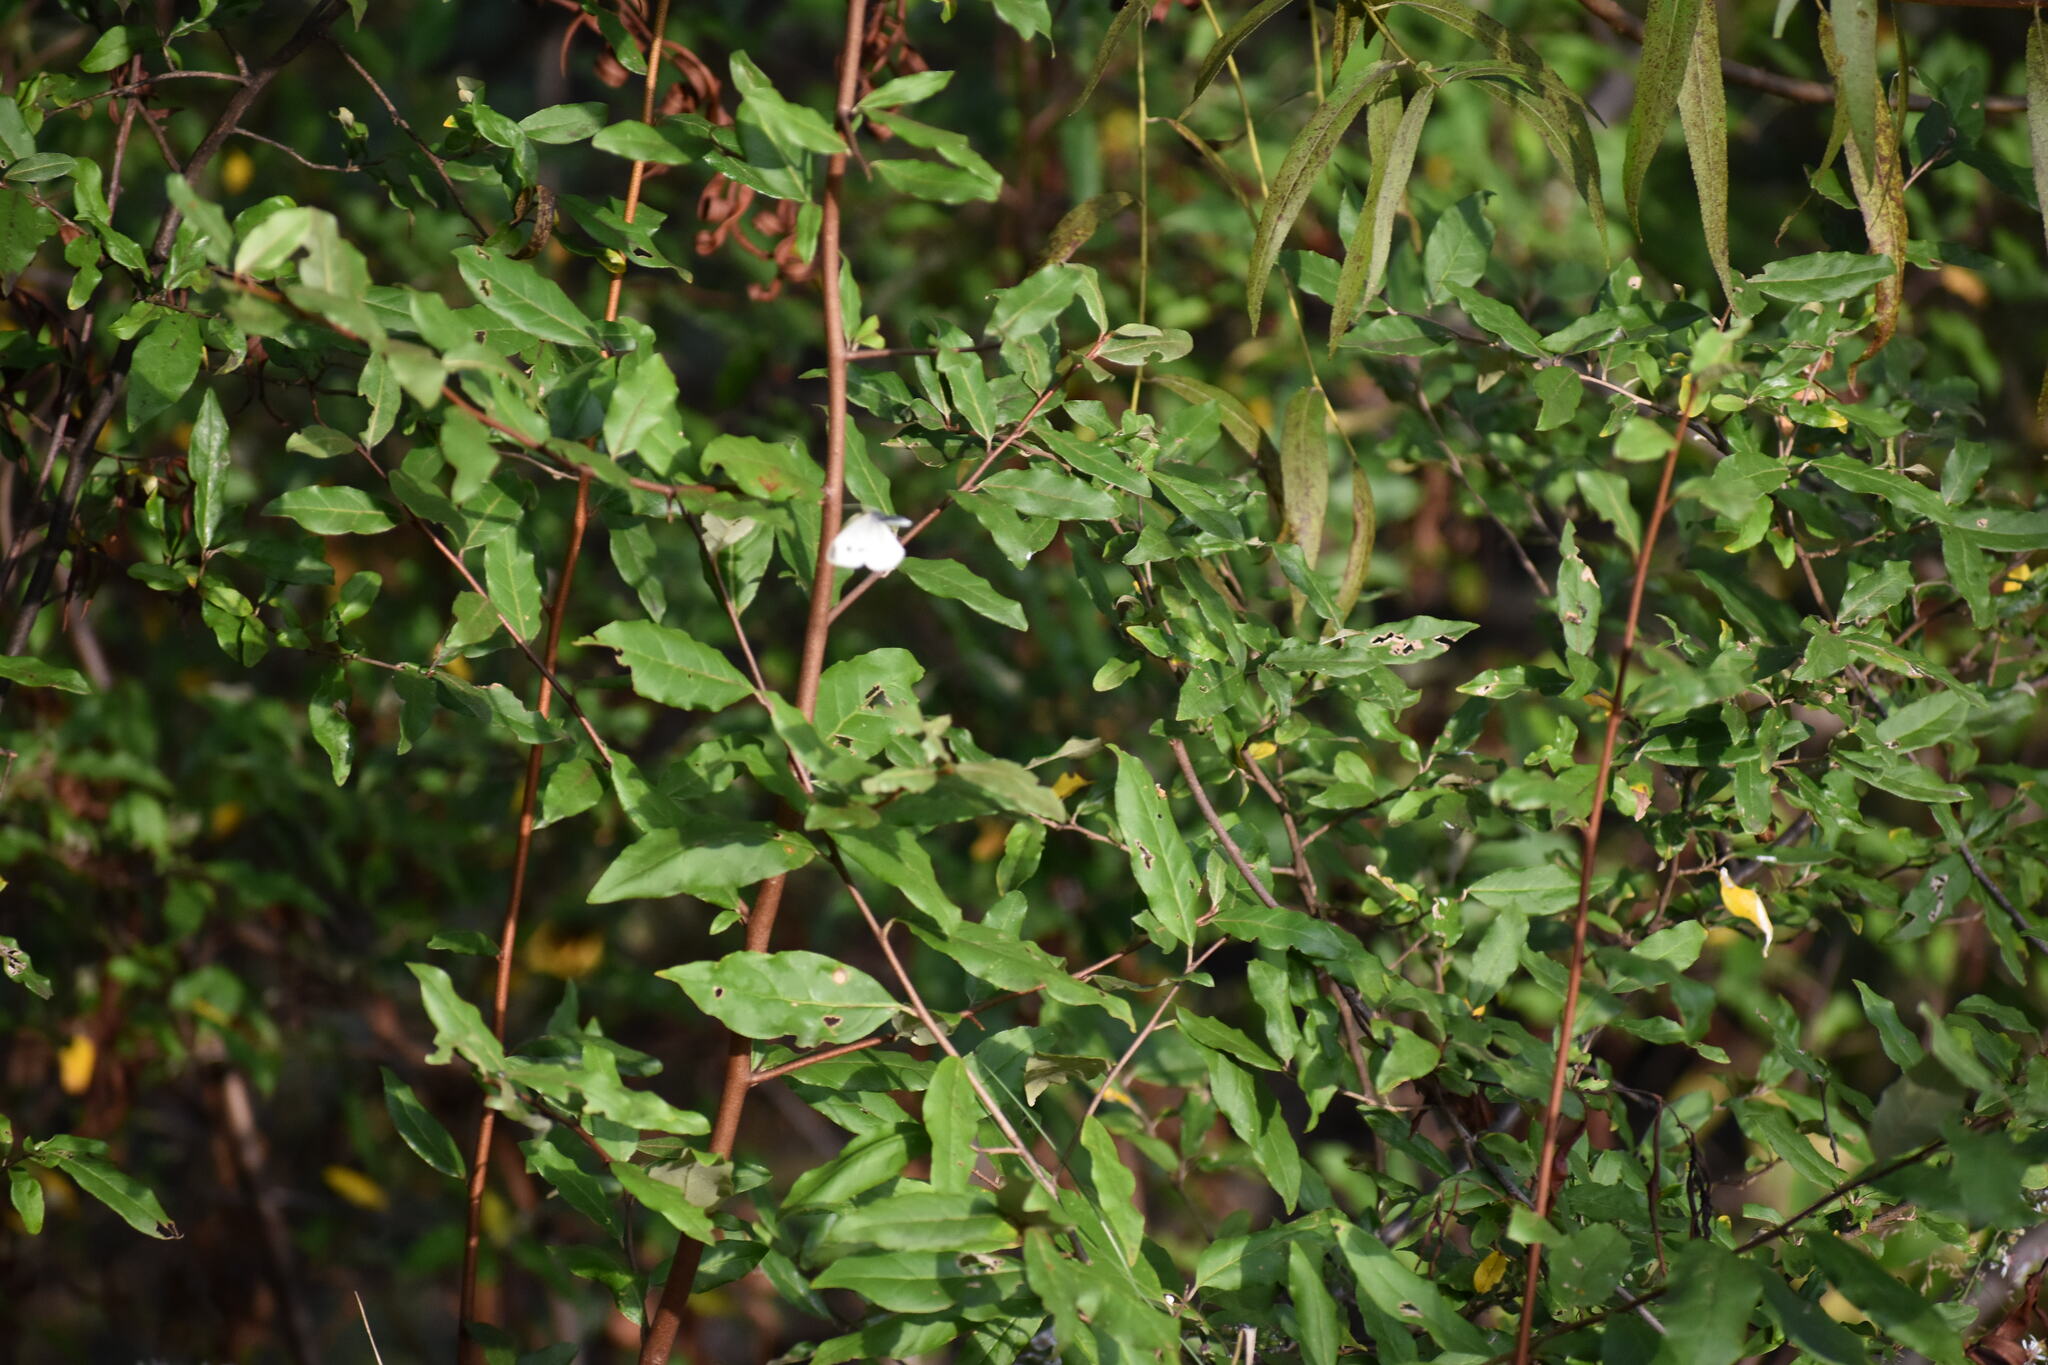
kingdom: Animalia
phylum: Arthropoda
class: Insecta
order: Lepidoptera
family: Pieridae
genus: Pieris
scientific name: Pieris rapae
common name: Small white
